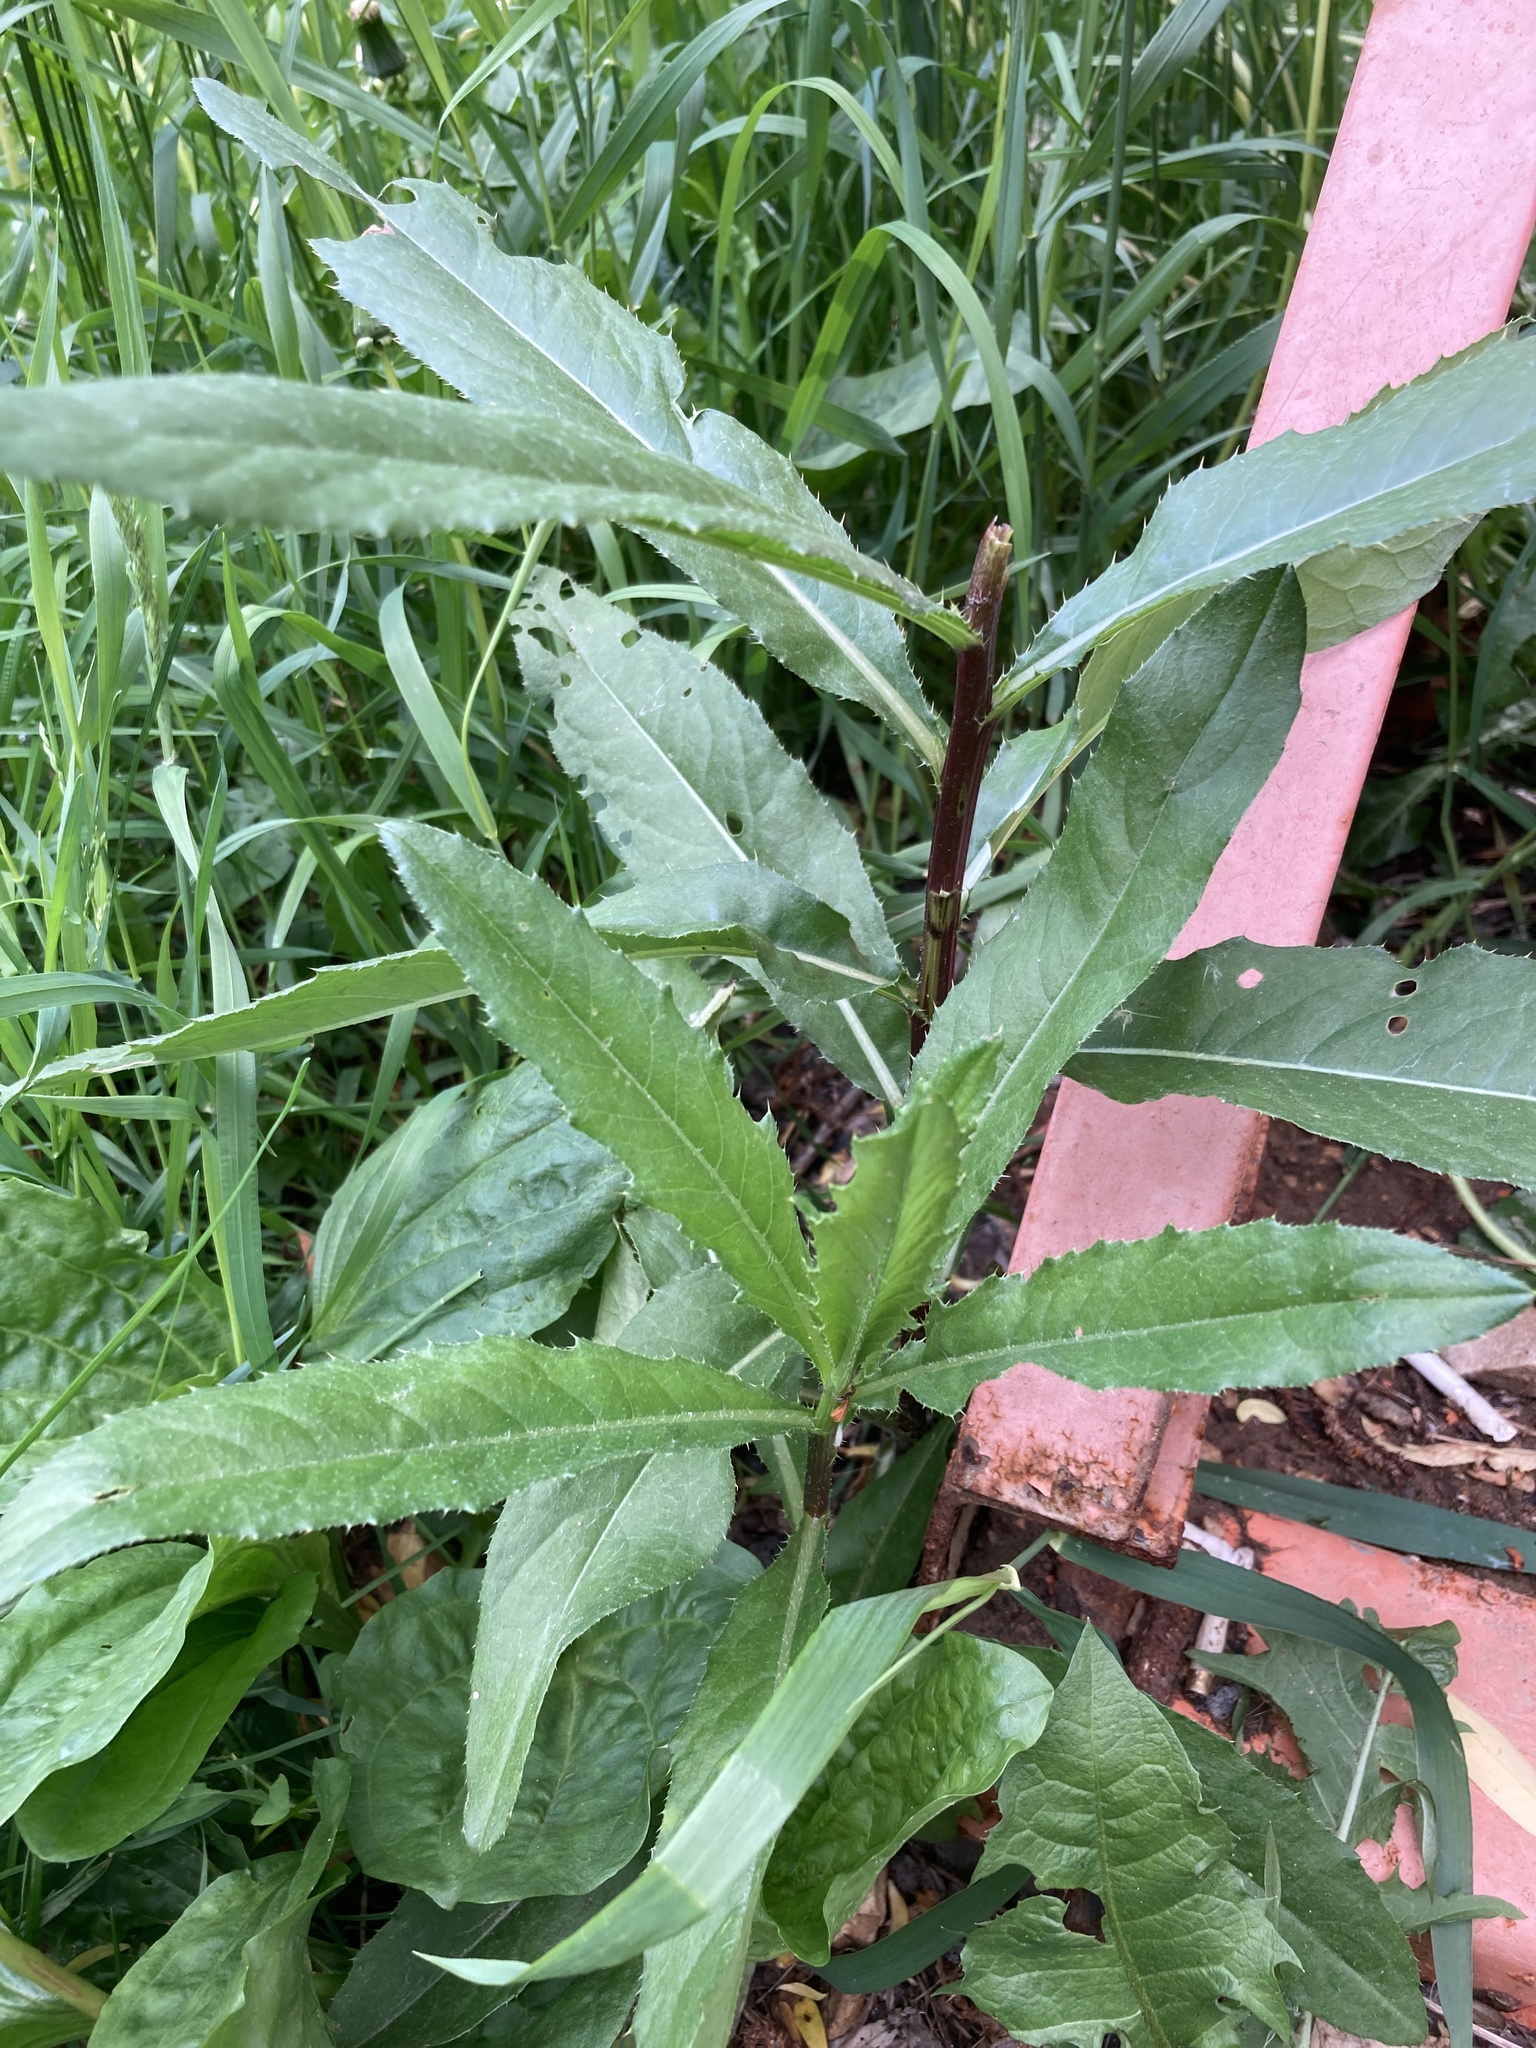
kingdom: Plantae
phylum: Tracheophyta
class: Magnoliopsida
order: Asterales
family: Asteraceae
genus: Cirsium
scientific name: Cirsium arvense
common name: Creeping thistle
